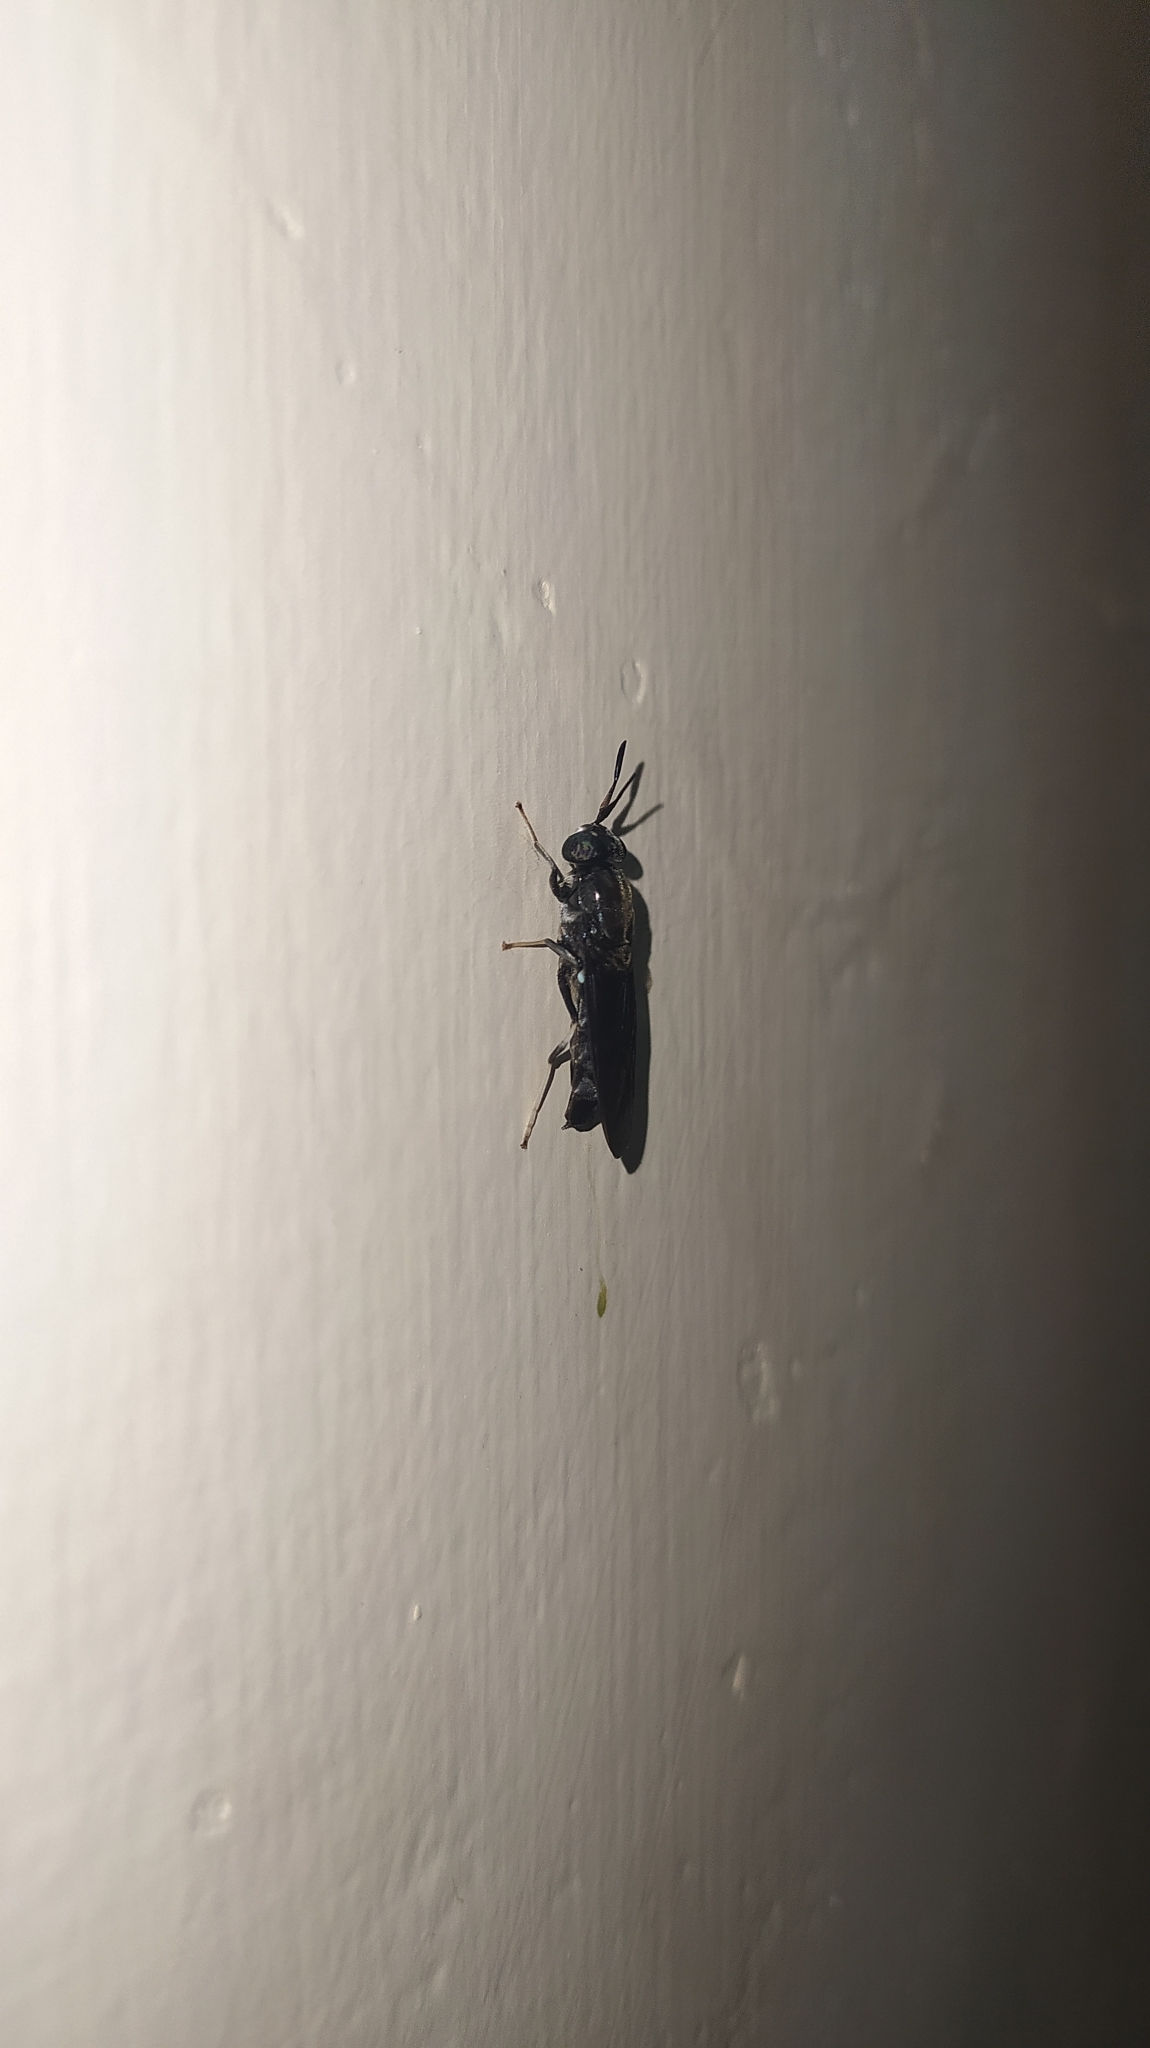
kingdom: Animalia
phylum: Arthropoda
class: Insecta
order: Diptera
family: Stratiomyidae
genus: Hermetia
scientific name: Hermetia illucens
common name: Black soldier fly
